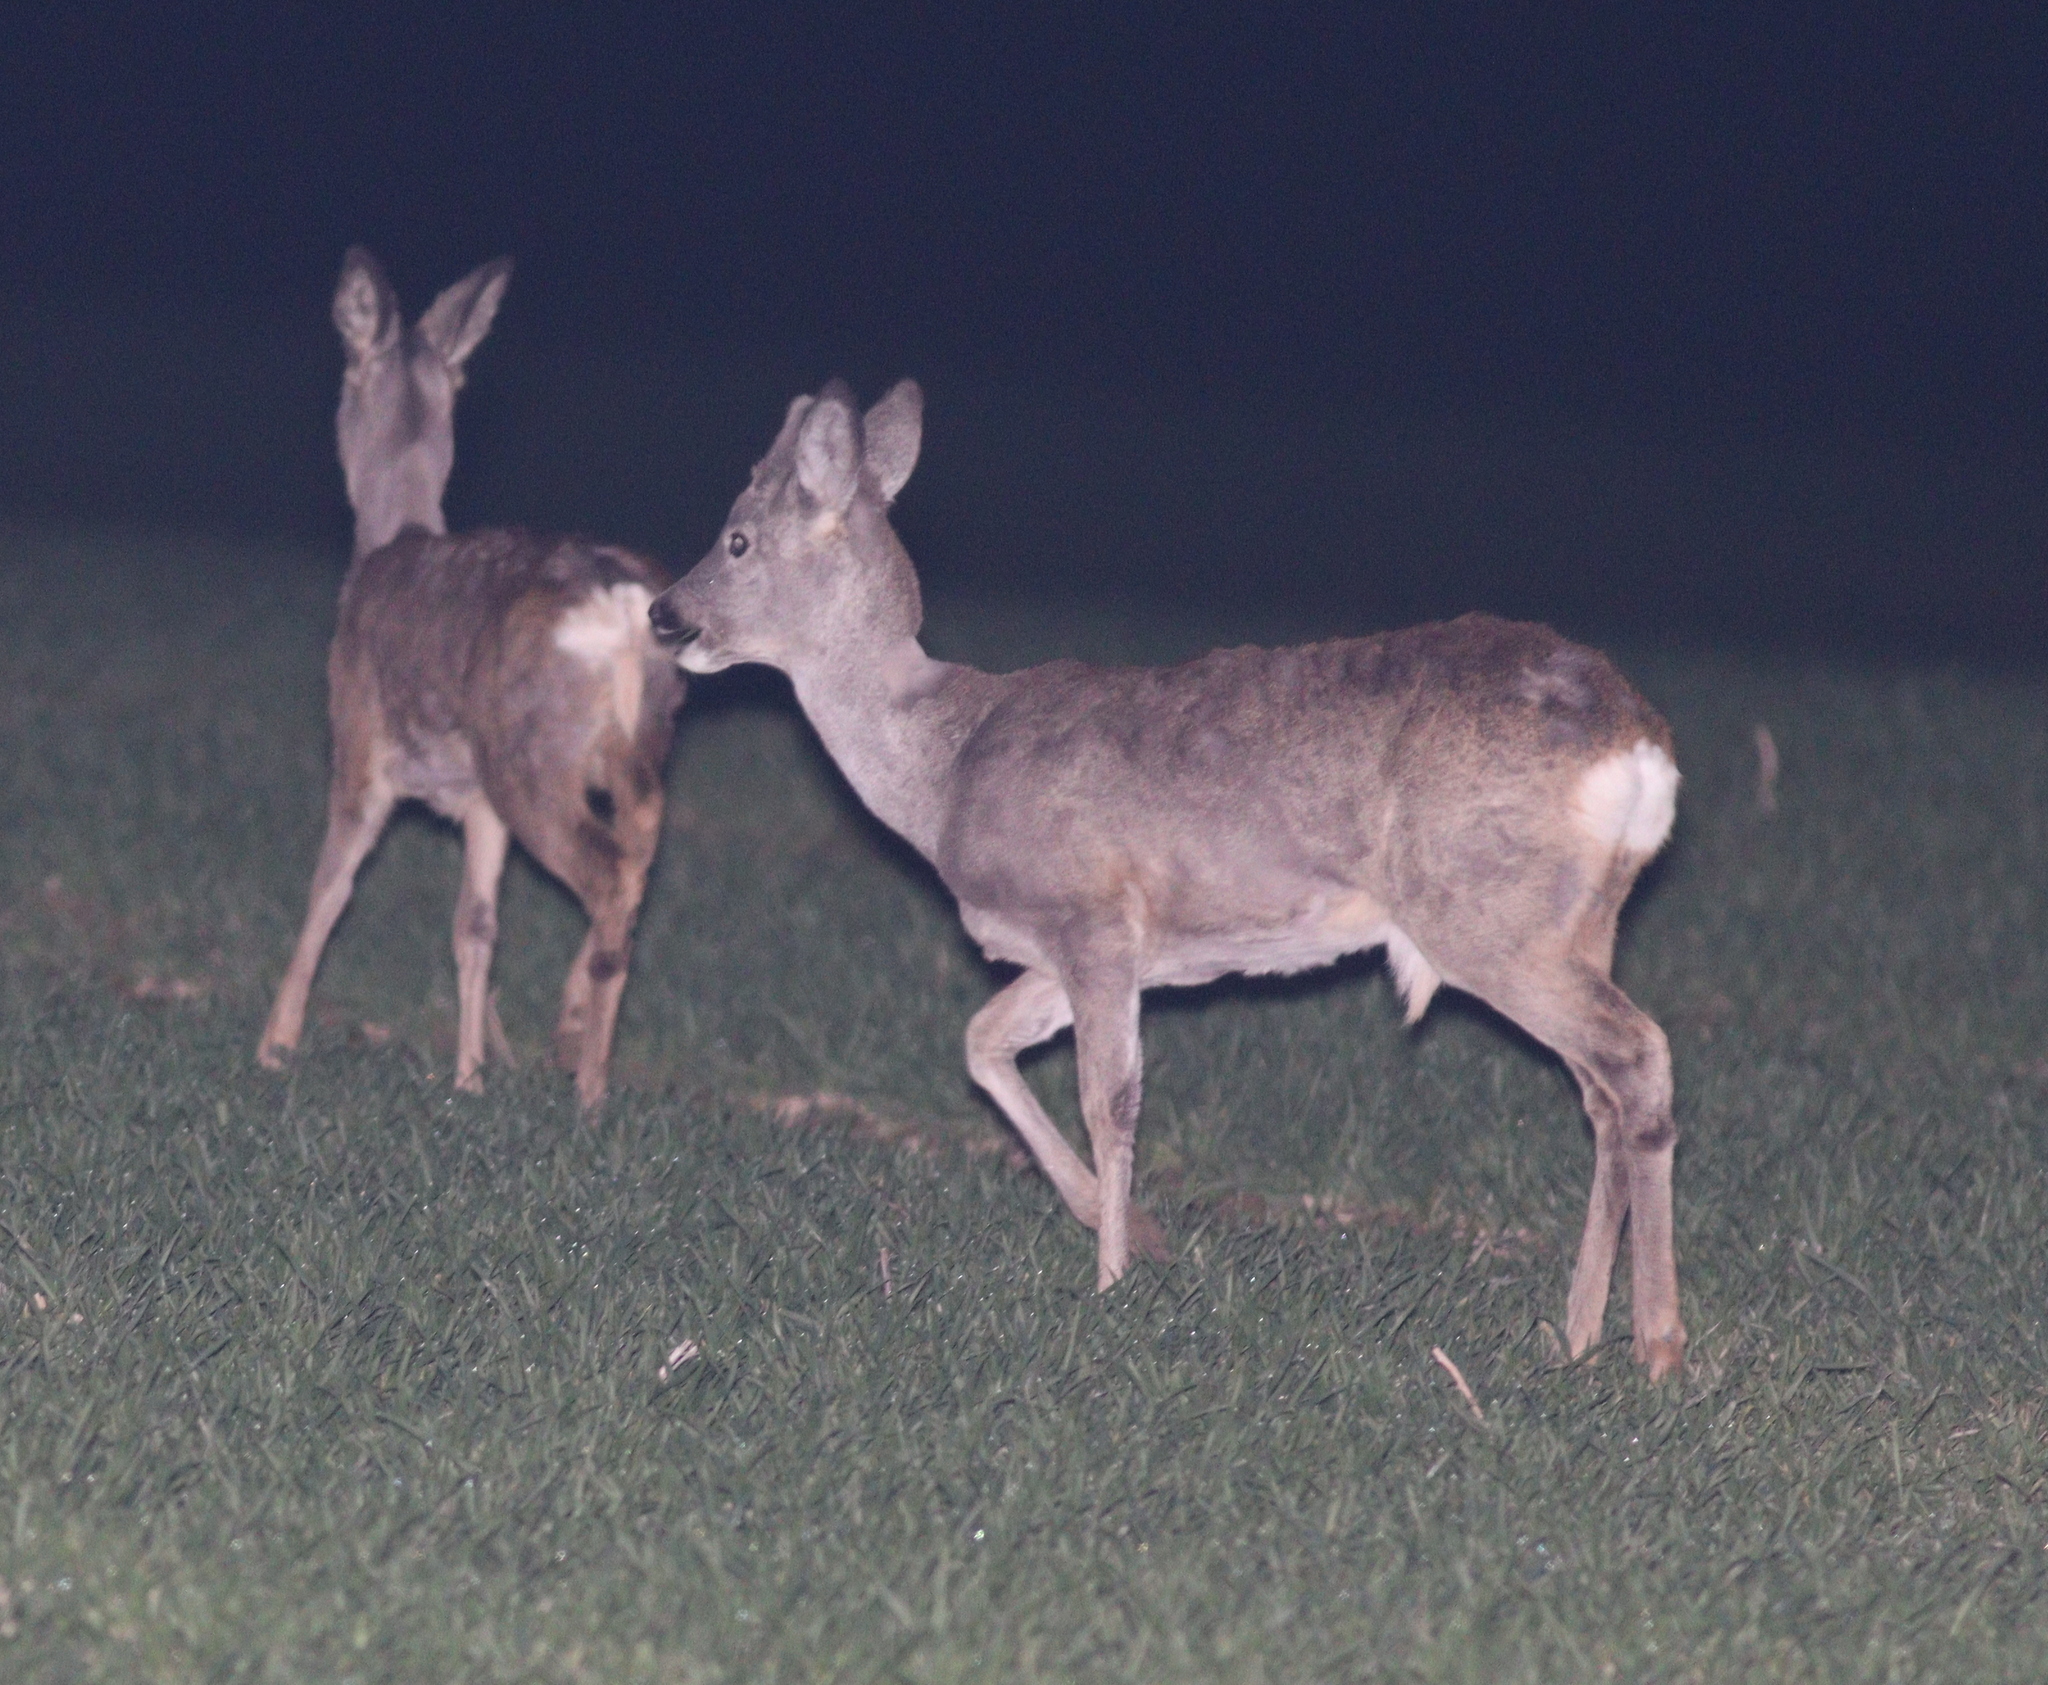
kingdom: Animalia
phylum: Chordata
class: Mammalia
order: Artiodactyla
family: Cervidae
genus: Capreolus
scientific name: Capreolus capreolus
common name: Western roe deer
